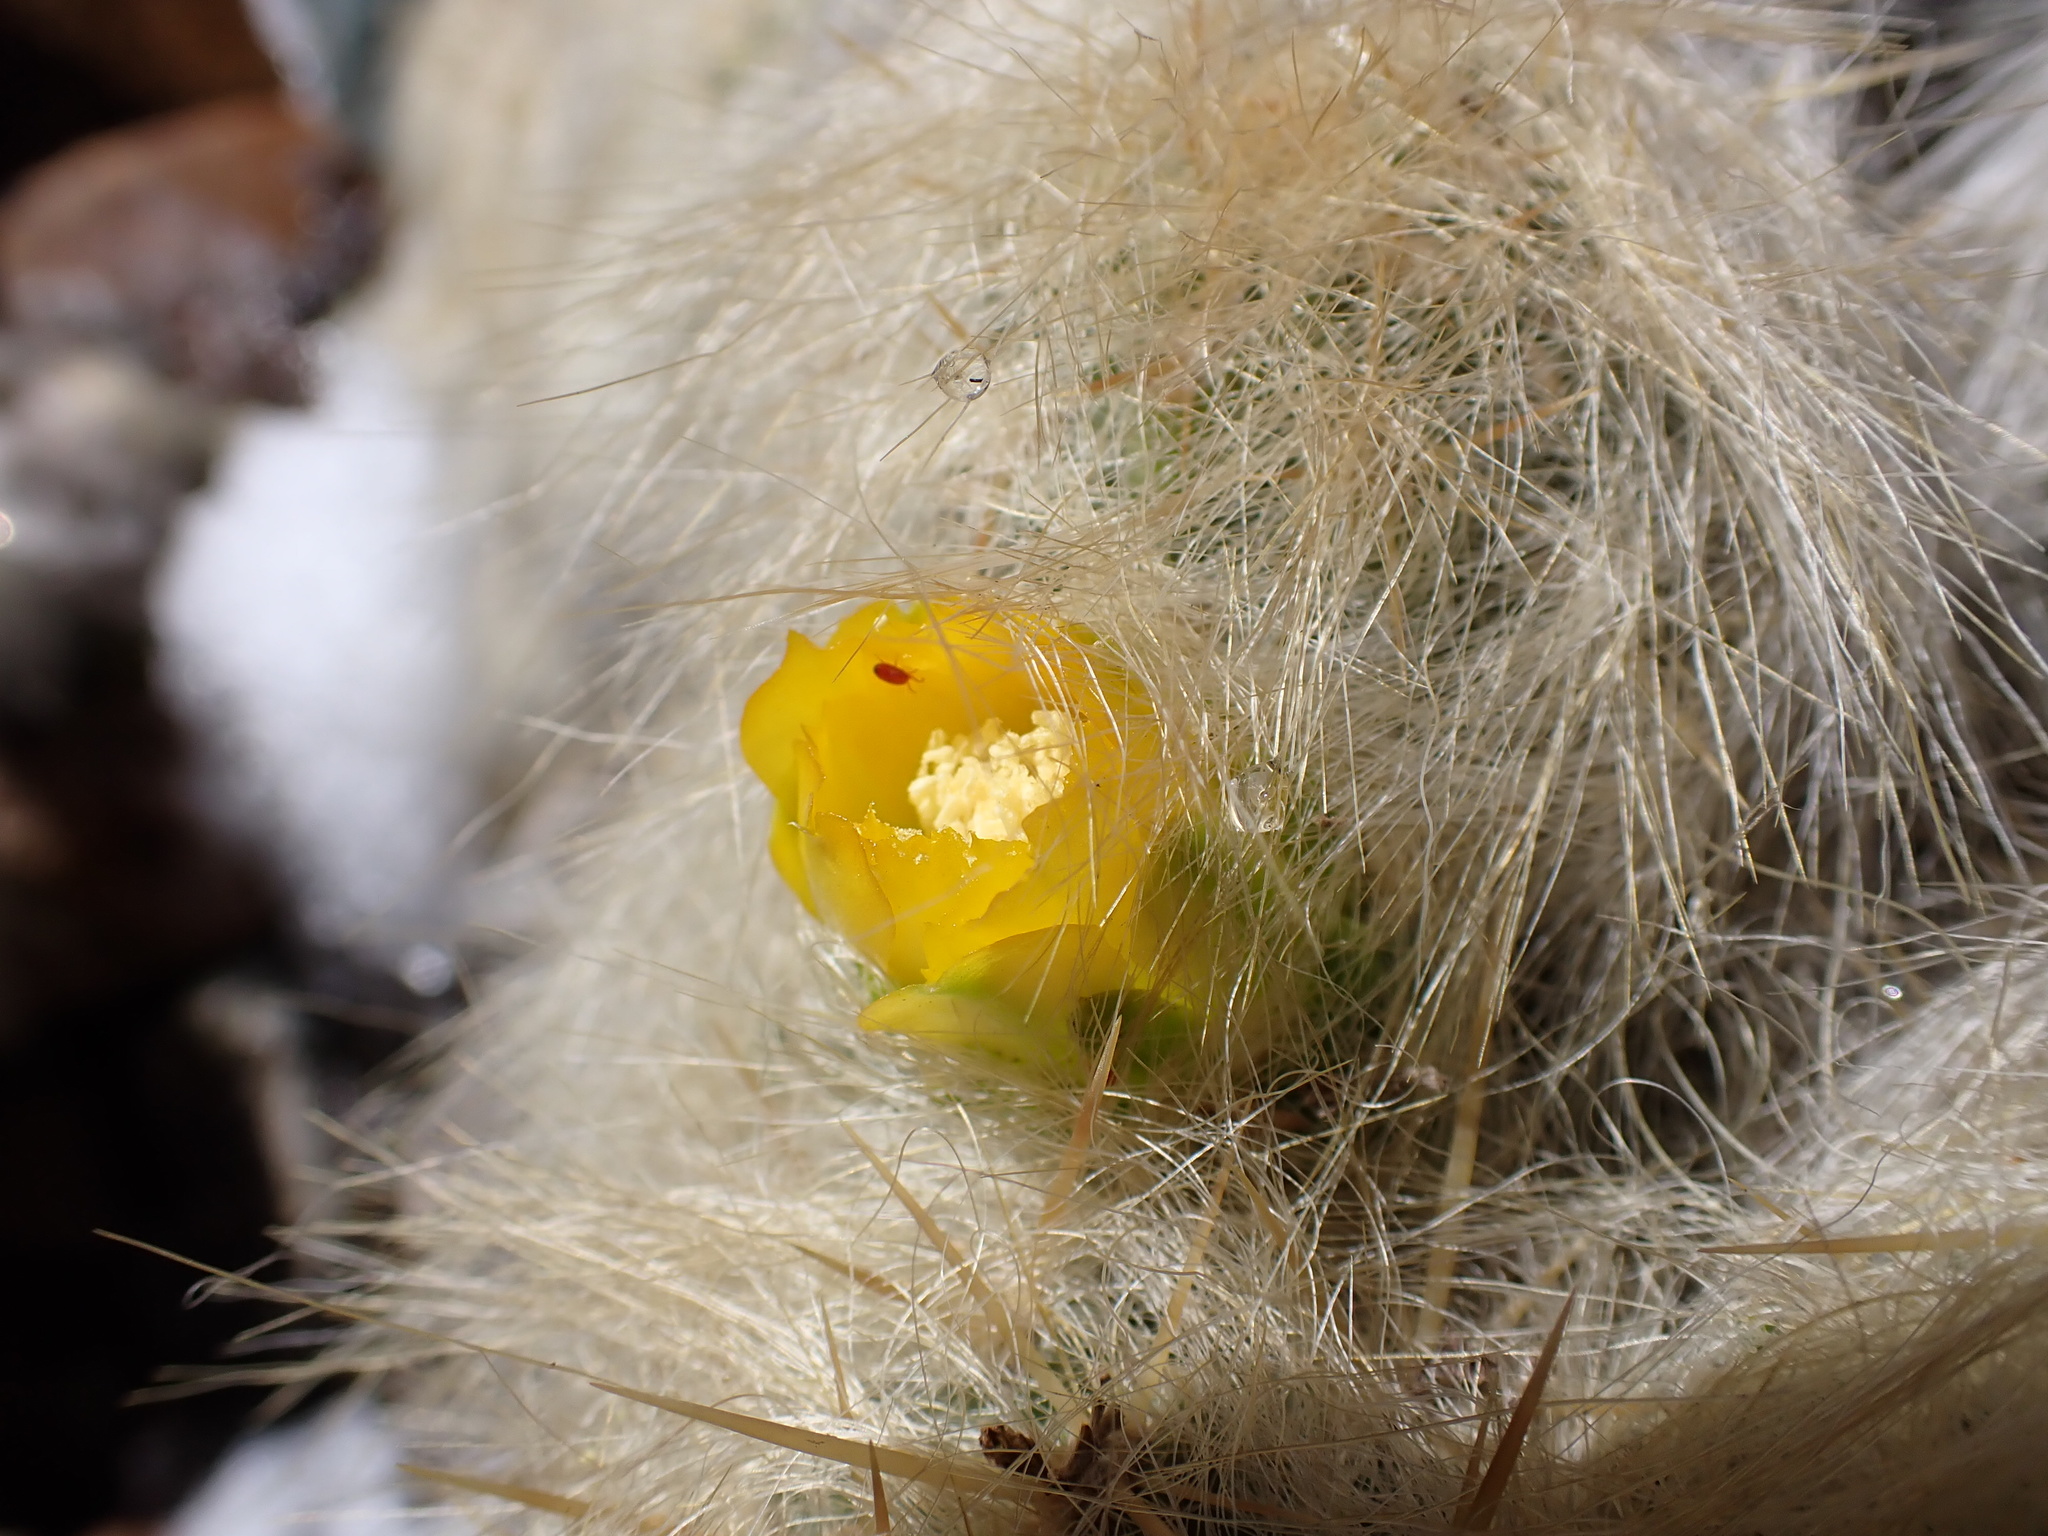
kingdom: Plantae
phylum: Tracheophyta
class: Magnoliopsida
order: Caryophyllales
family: Cactaceae
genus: Austrocylindropuntia
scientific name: Austrocylindropuntia floccosa
